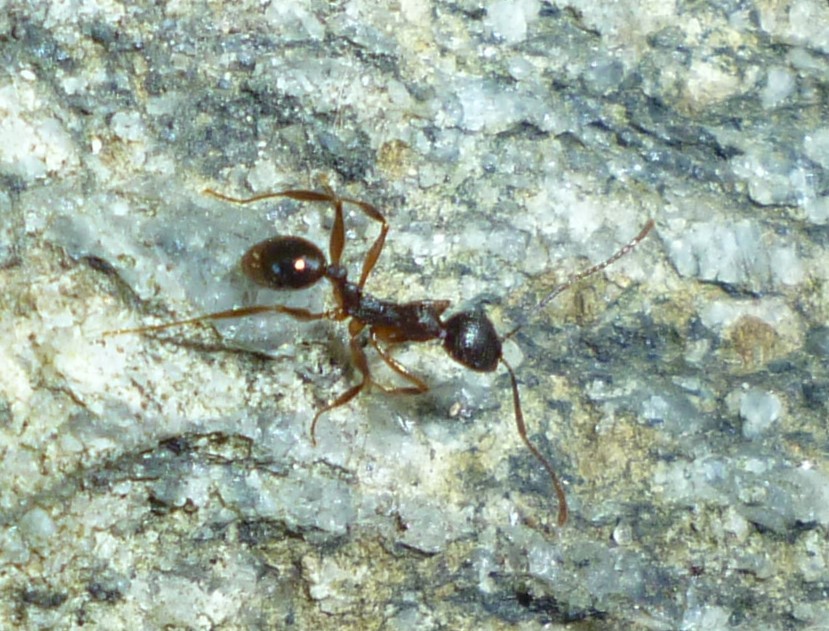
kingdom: Animalia
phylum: Arthropoda
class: Insecta
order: Hymenoptera
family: Formicidae
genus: Aphaenogaster
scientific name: Aphaenogaster picea
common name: Pitch-black collared ant
